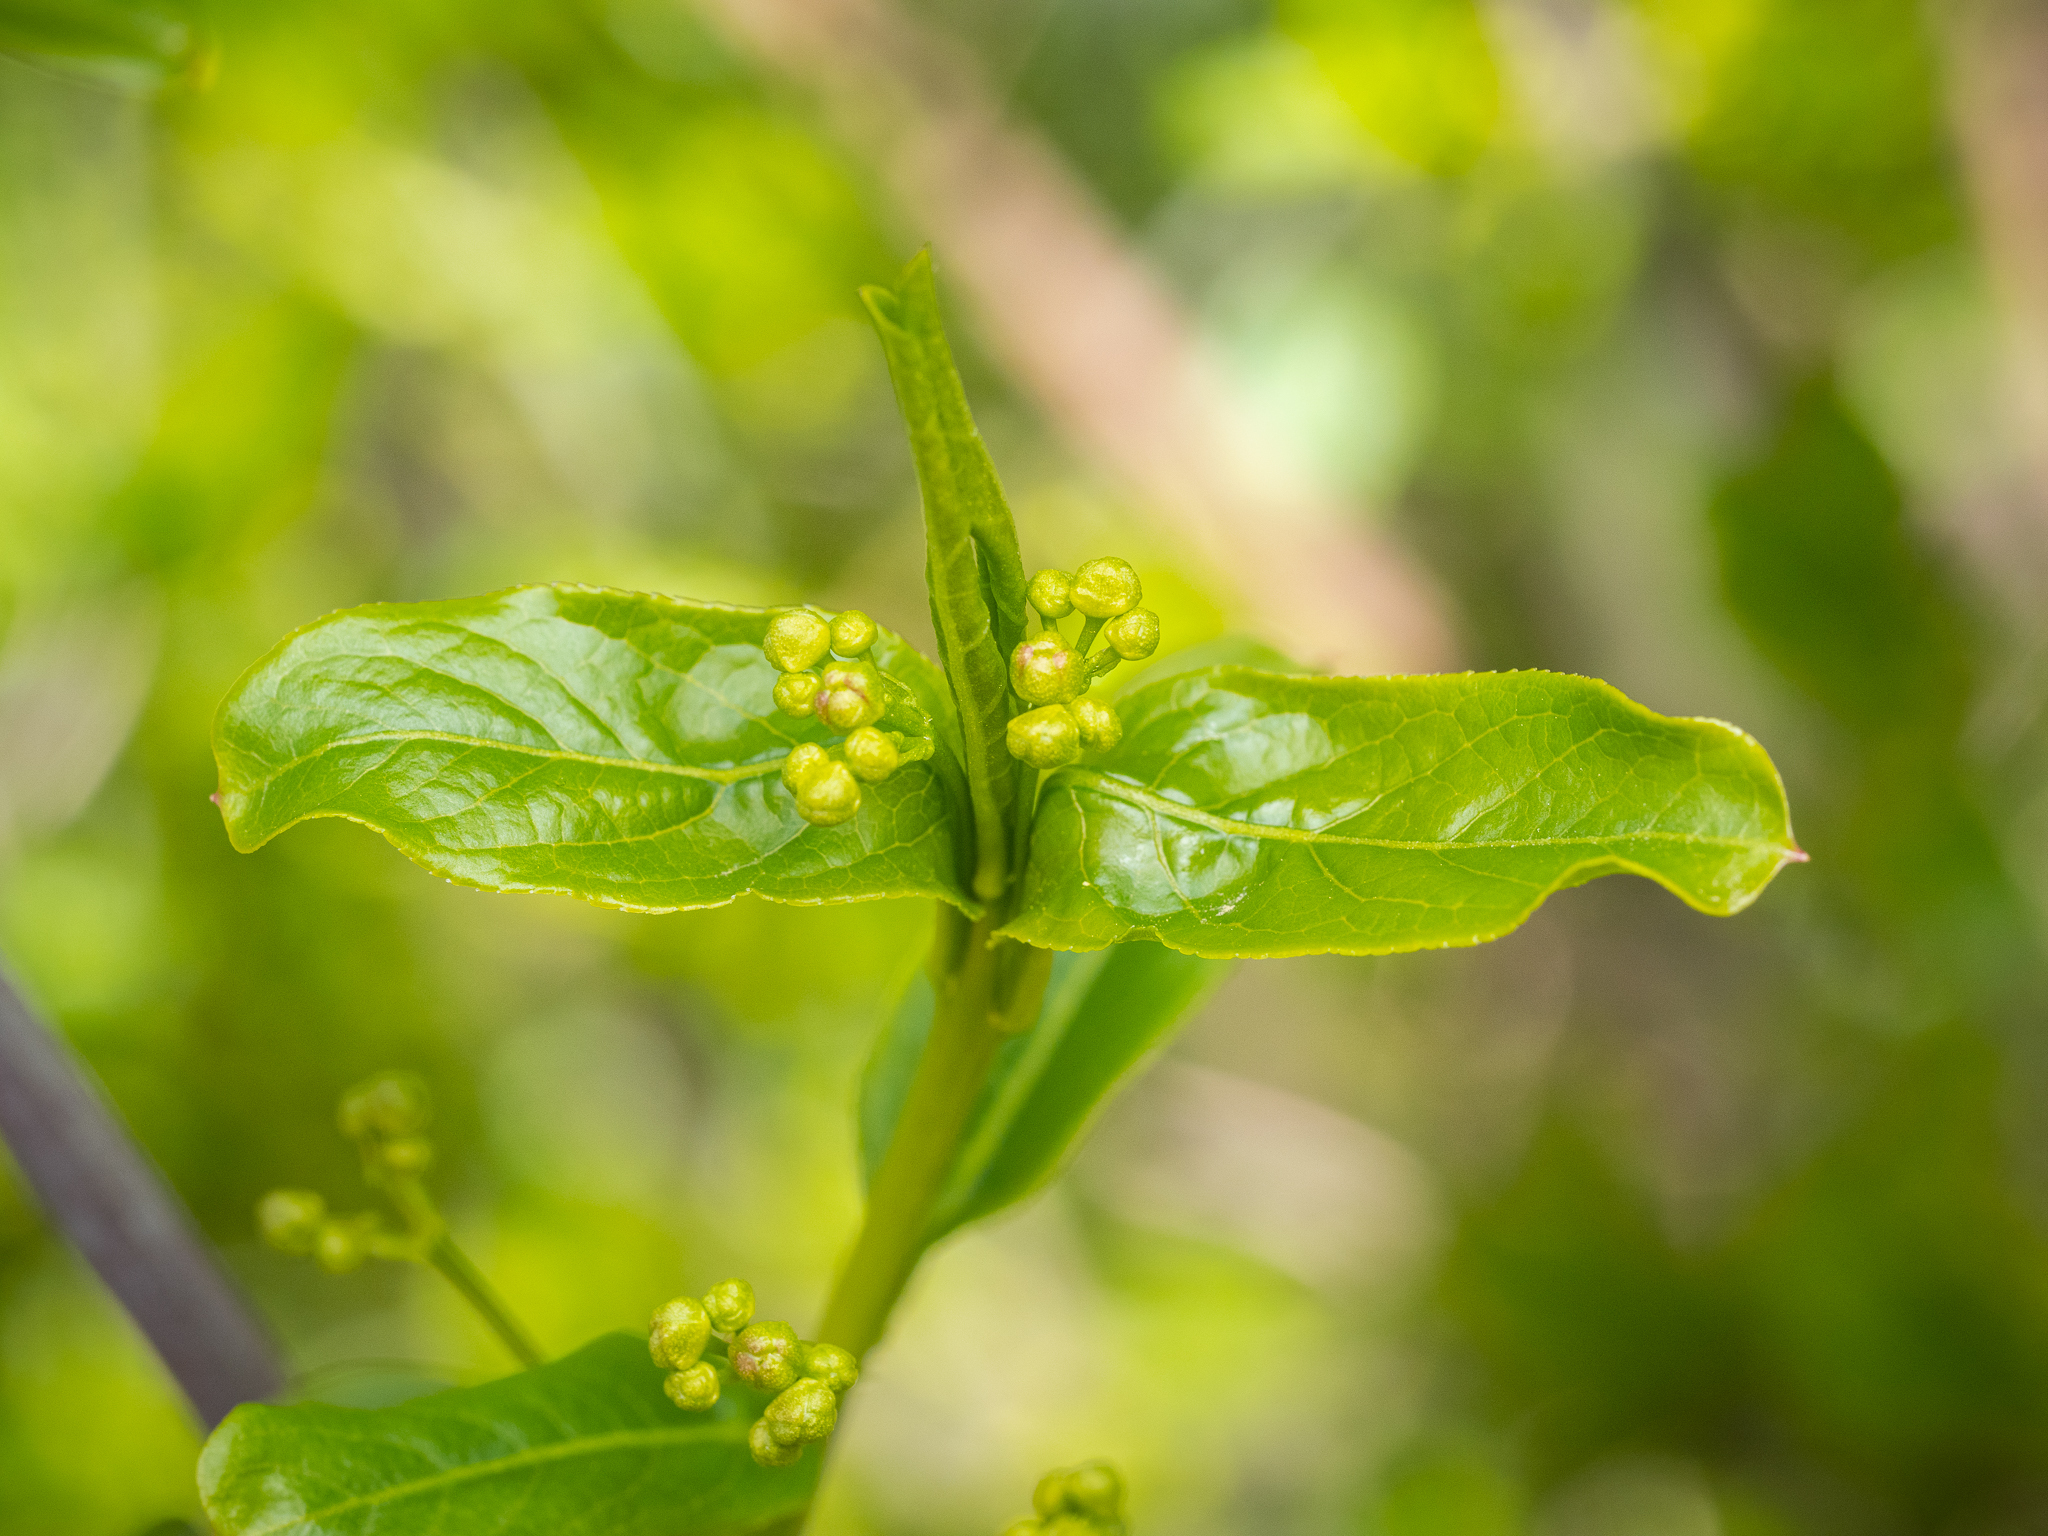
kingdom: Plantae
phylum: Tracheophyta
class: Magnoliopsida
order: Celastrales
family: Celastraceae
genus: Euonymus
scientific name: Euonymus europaeus
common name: Spindle
